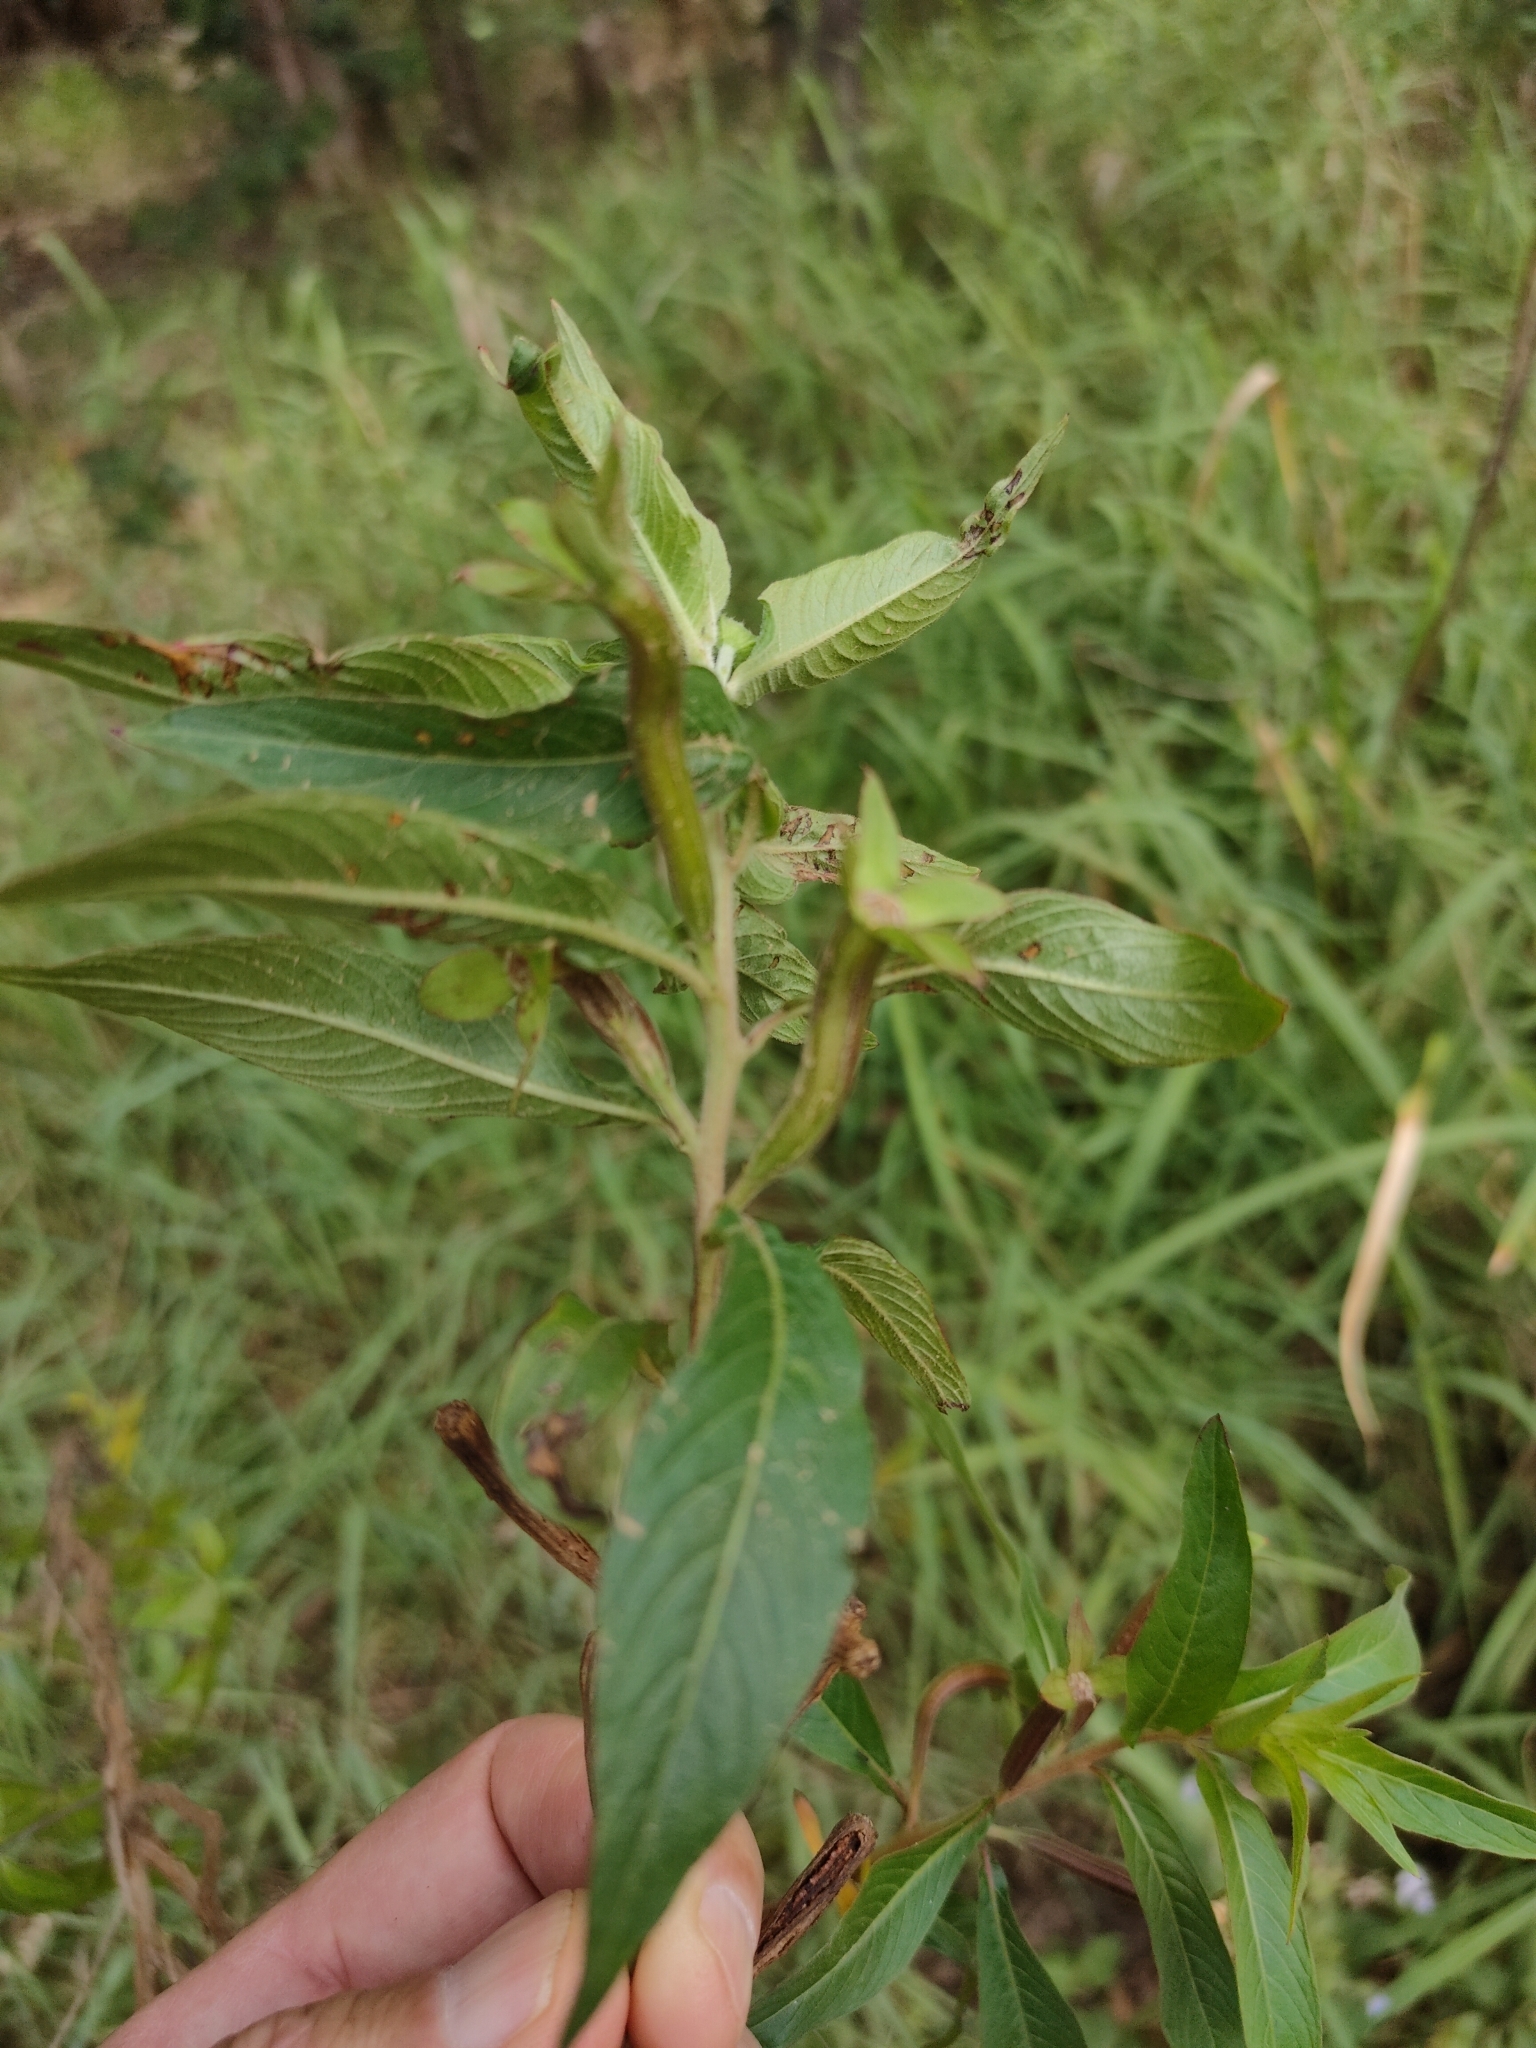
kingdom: Plantae
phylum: Tracheophyta
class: Magnoliopsida
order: Myrtales
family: Onagraceae
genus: Ludwigia
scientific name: Ludwigia octovalvis
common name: Water-primrose
